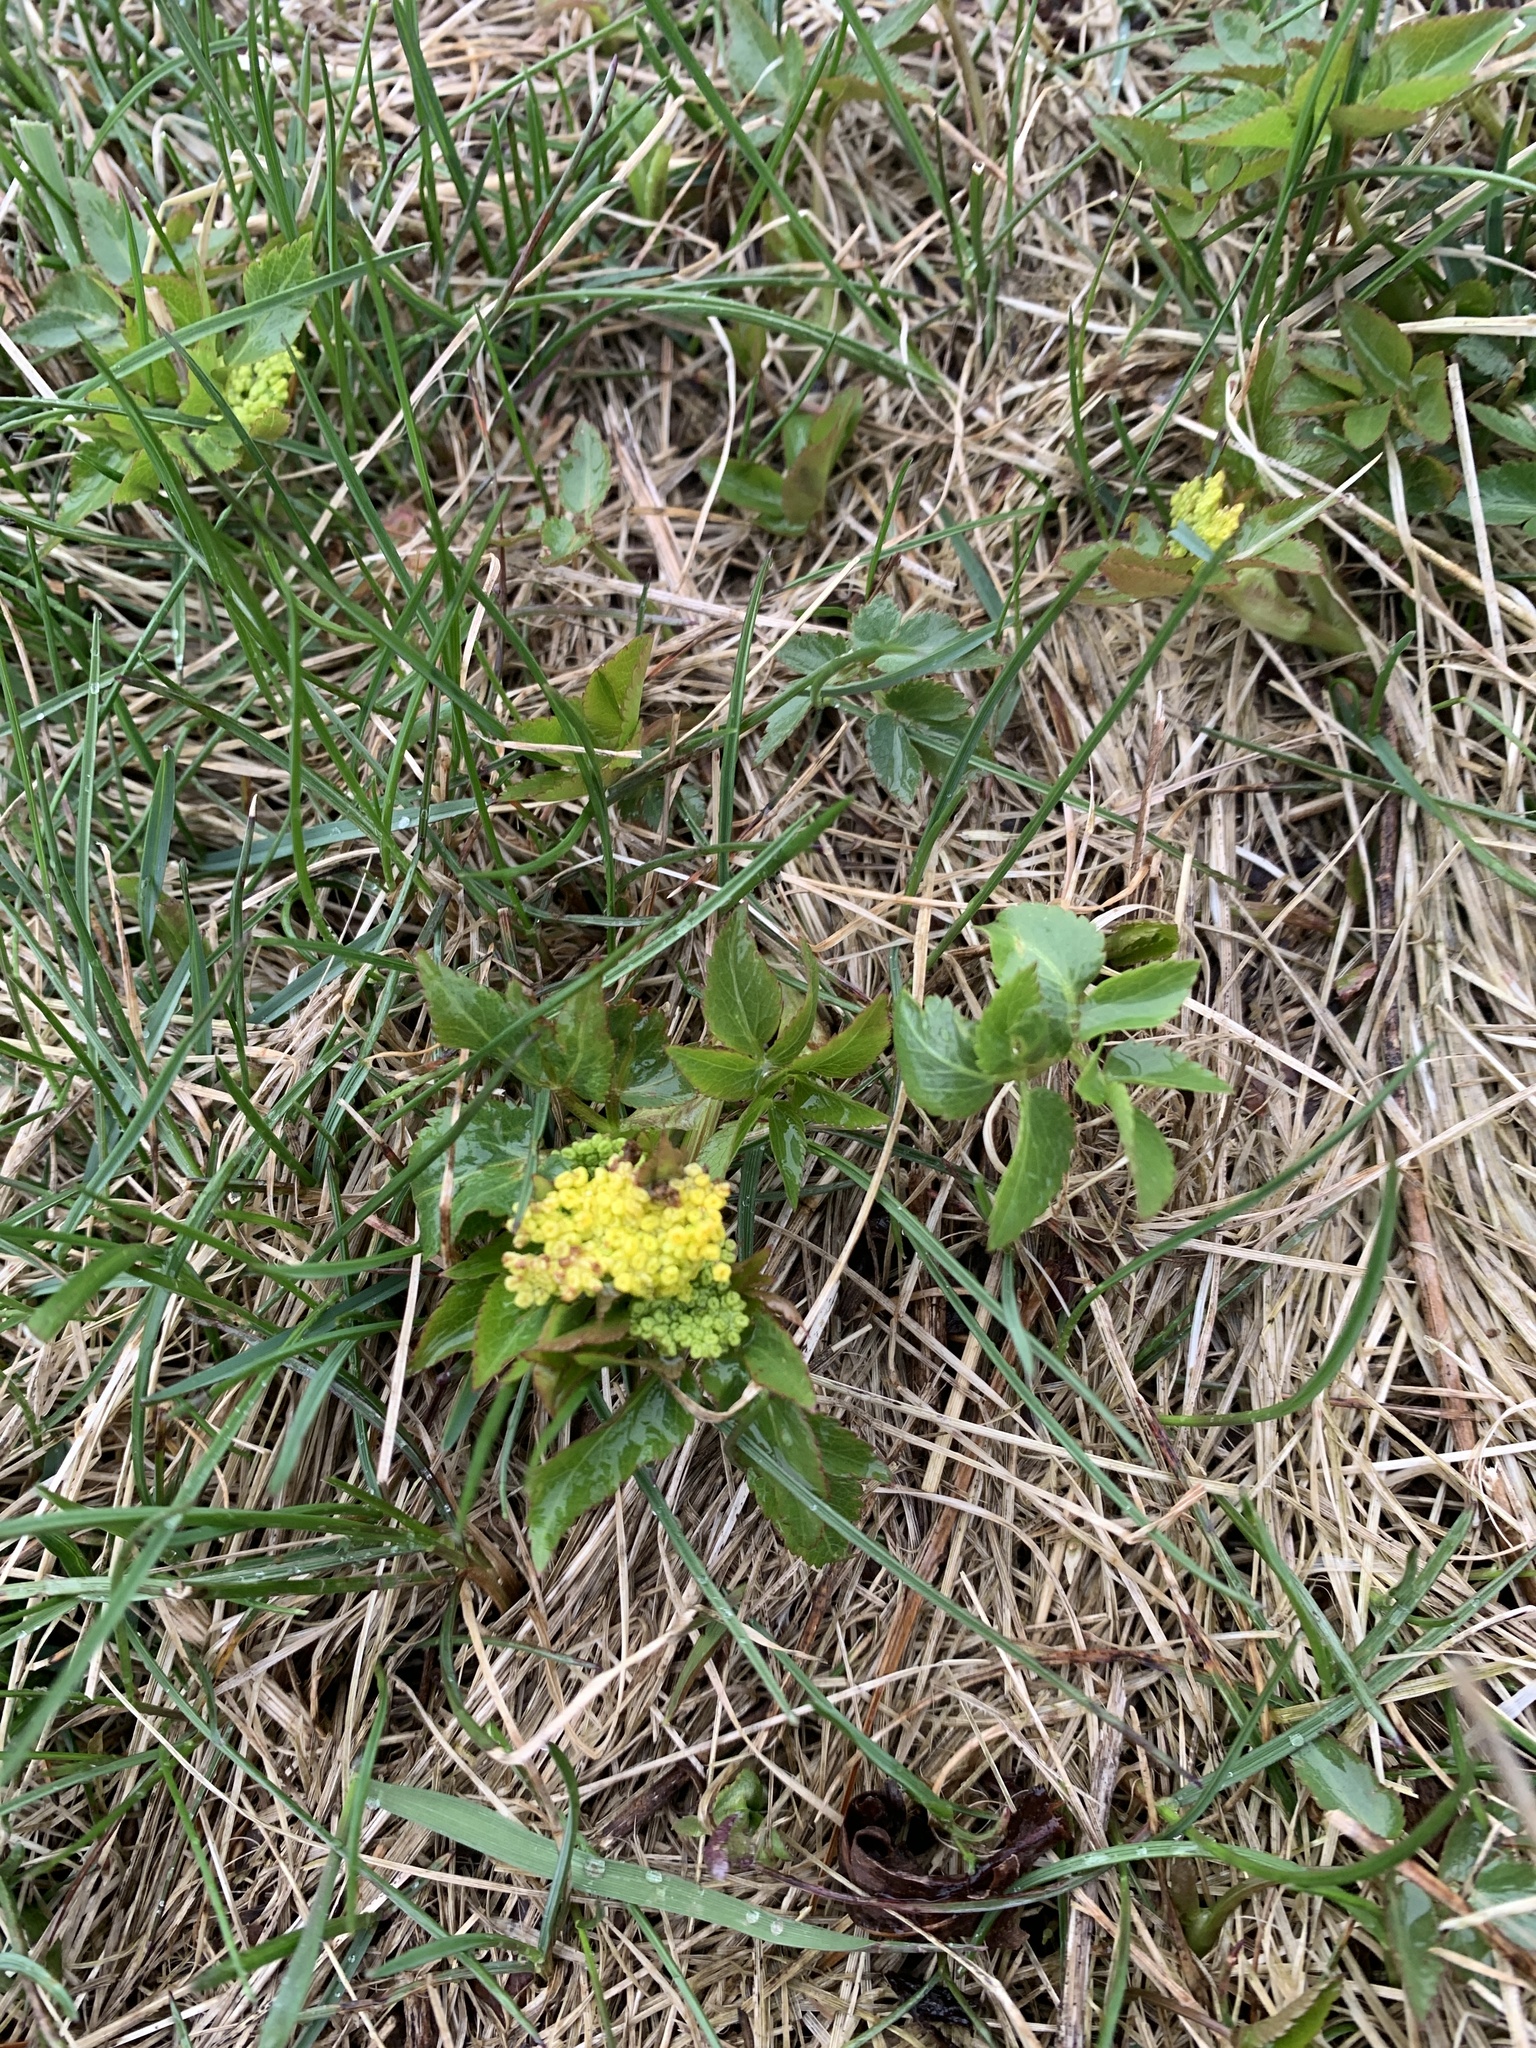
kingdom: Plantae
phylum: Tracheophyta
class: Magnoliopsida
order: Apiales
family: Apiaceae
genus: Zizia
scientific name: Zizia aurea
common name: Golden alexanders
